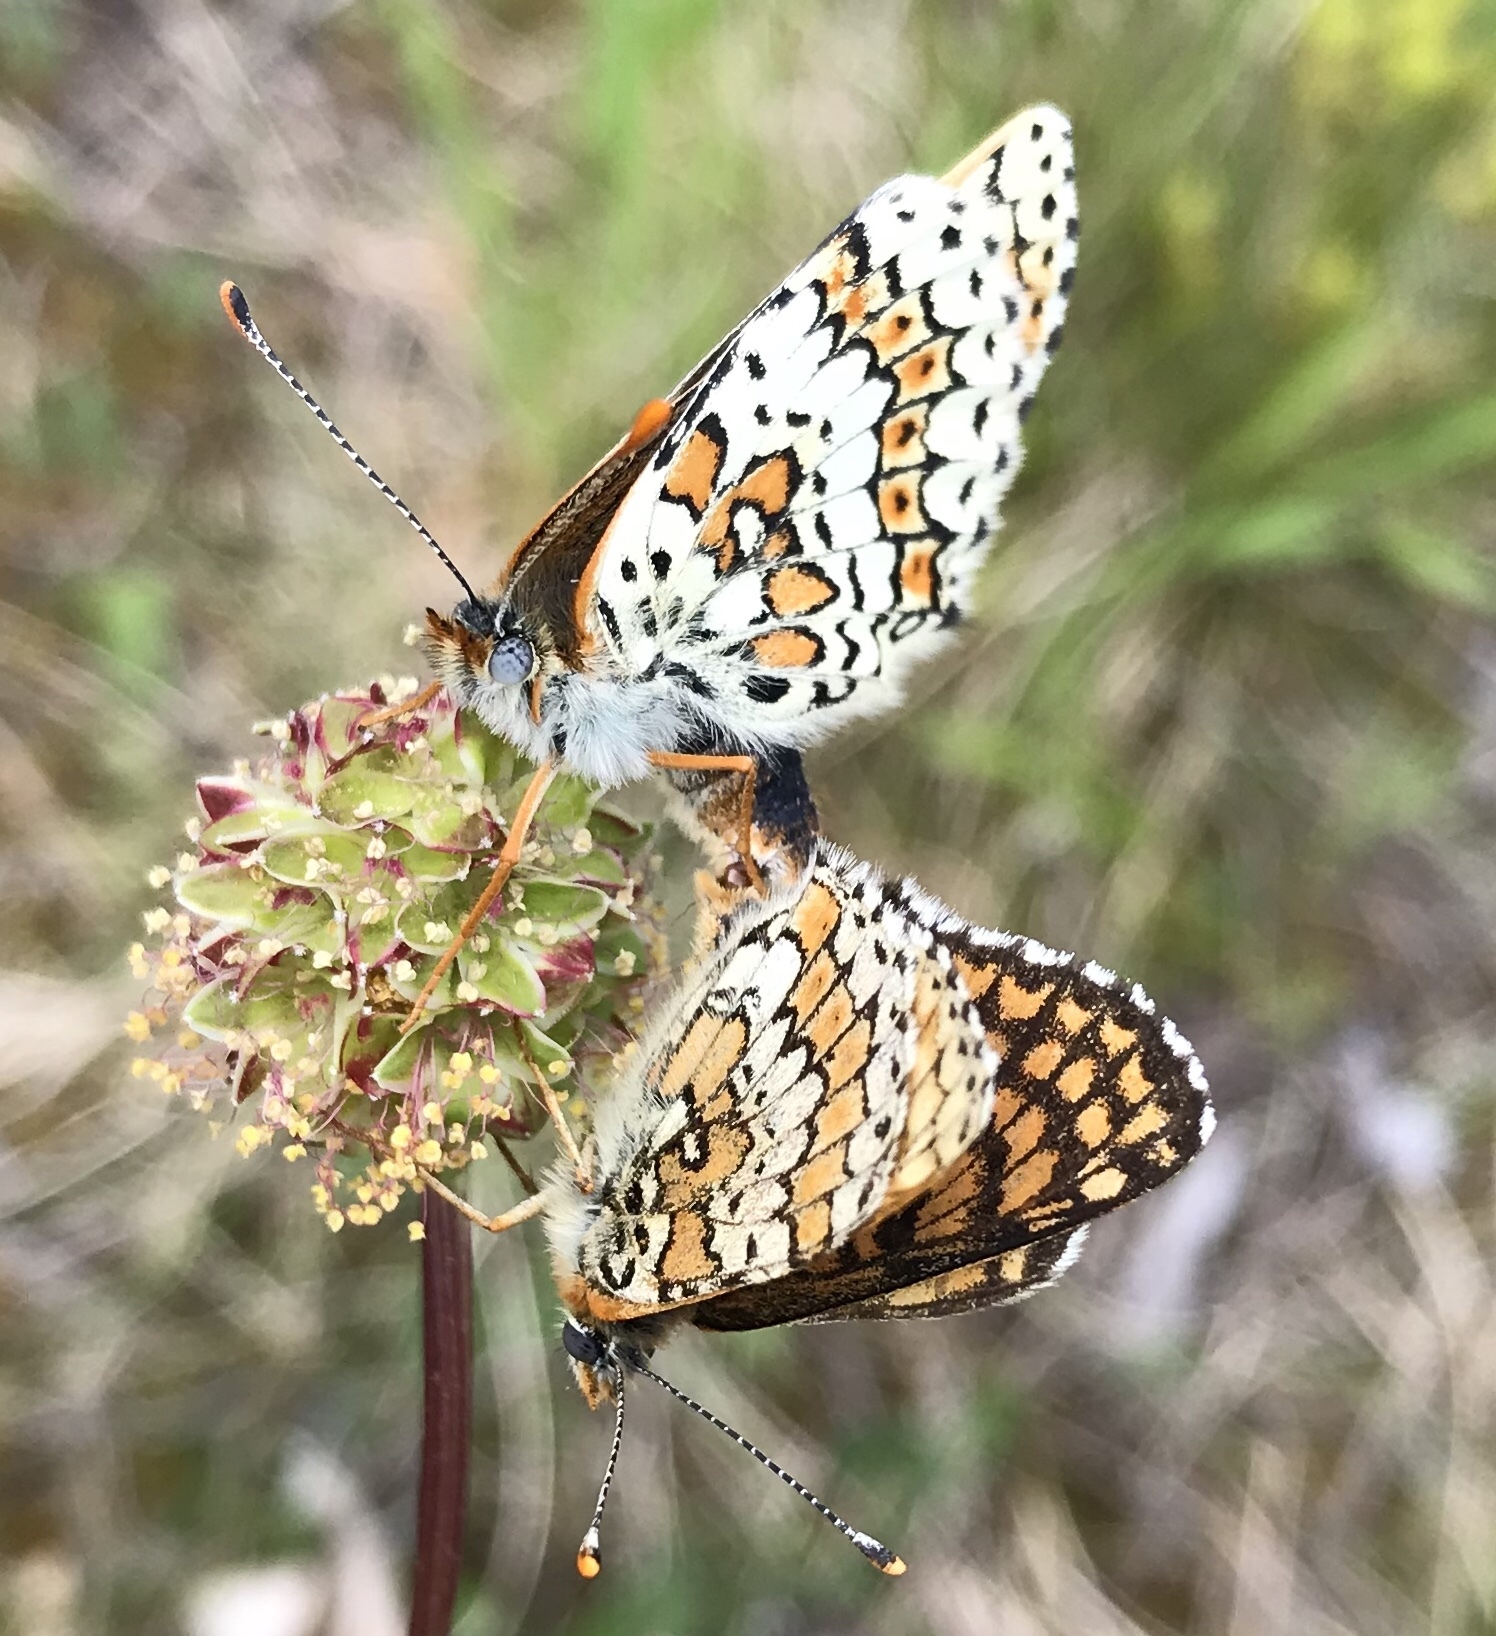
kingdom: Animalia
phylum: Arthropoda
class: Insecta
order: Lepidoptera
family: Nymphalidae
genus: Melitaea
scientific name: Melitaea cinxia
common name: Glanville fritillary
